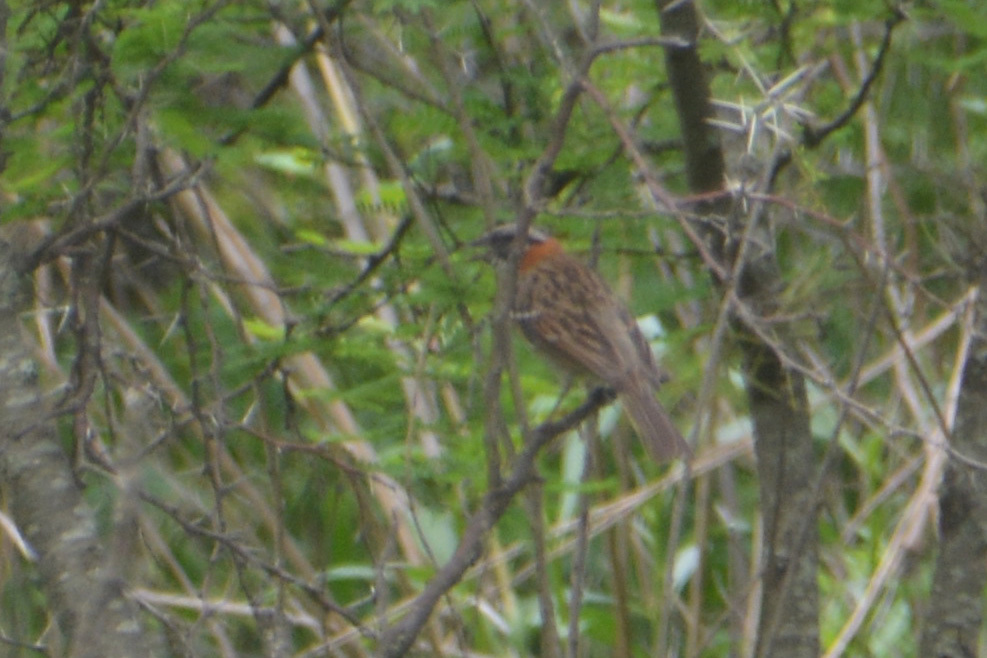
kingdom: Animalia
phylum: Chordata
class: Aves
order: Passeriformes
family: Passerellidae
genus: Zonotrichia
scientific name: Zonotrichia capensis
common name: Rufous-collared sparrow
